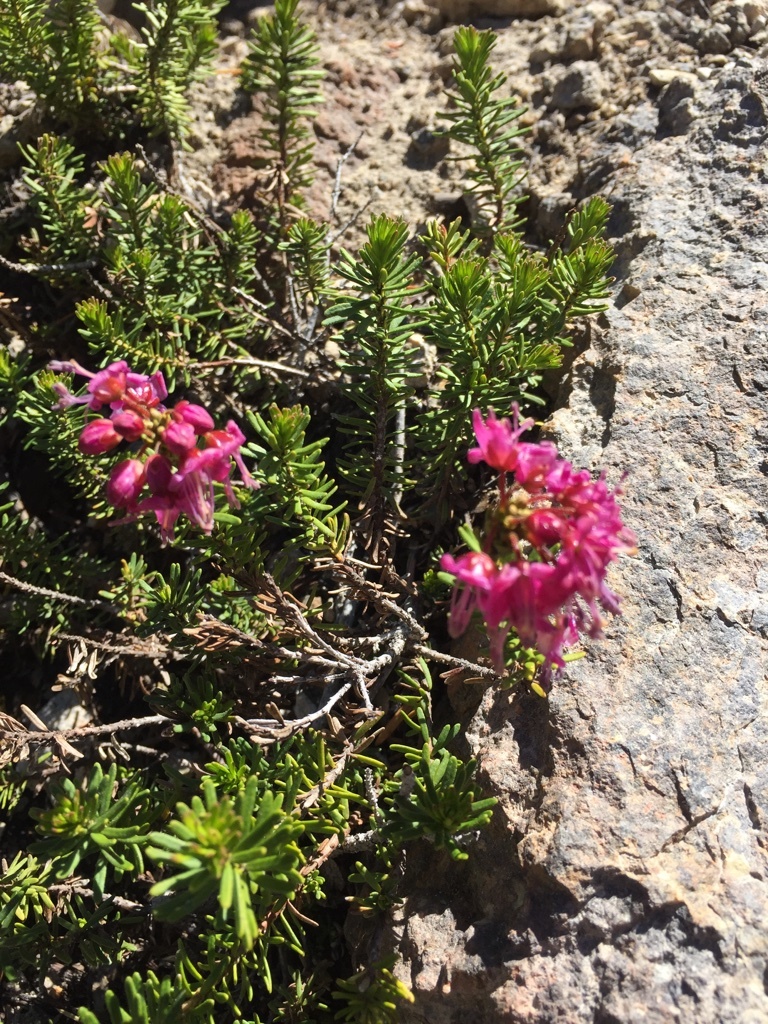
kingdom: Plantae
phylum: Tracheophyta
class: Magnoliopsida
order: Ericales
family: Ericaceae
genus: Phyllodoce
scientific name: Phyllodoce breweri
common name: Brewer's mountain-heather
